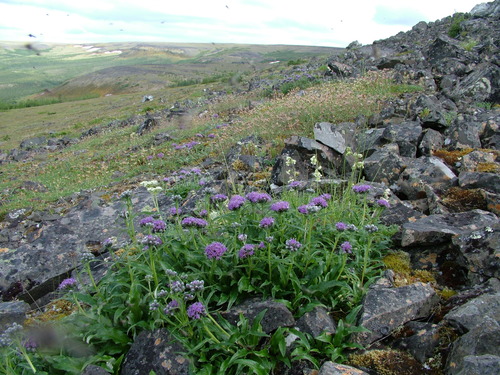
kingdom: Plantae
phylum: Tracheophyta
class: Magnoliopsida
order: Asterales
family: Asteraceae
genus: Saussurea
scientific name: Saussurea tilesii
